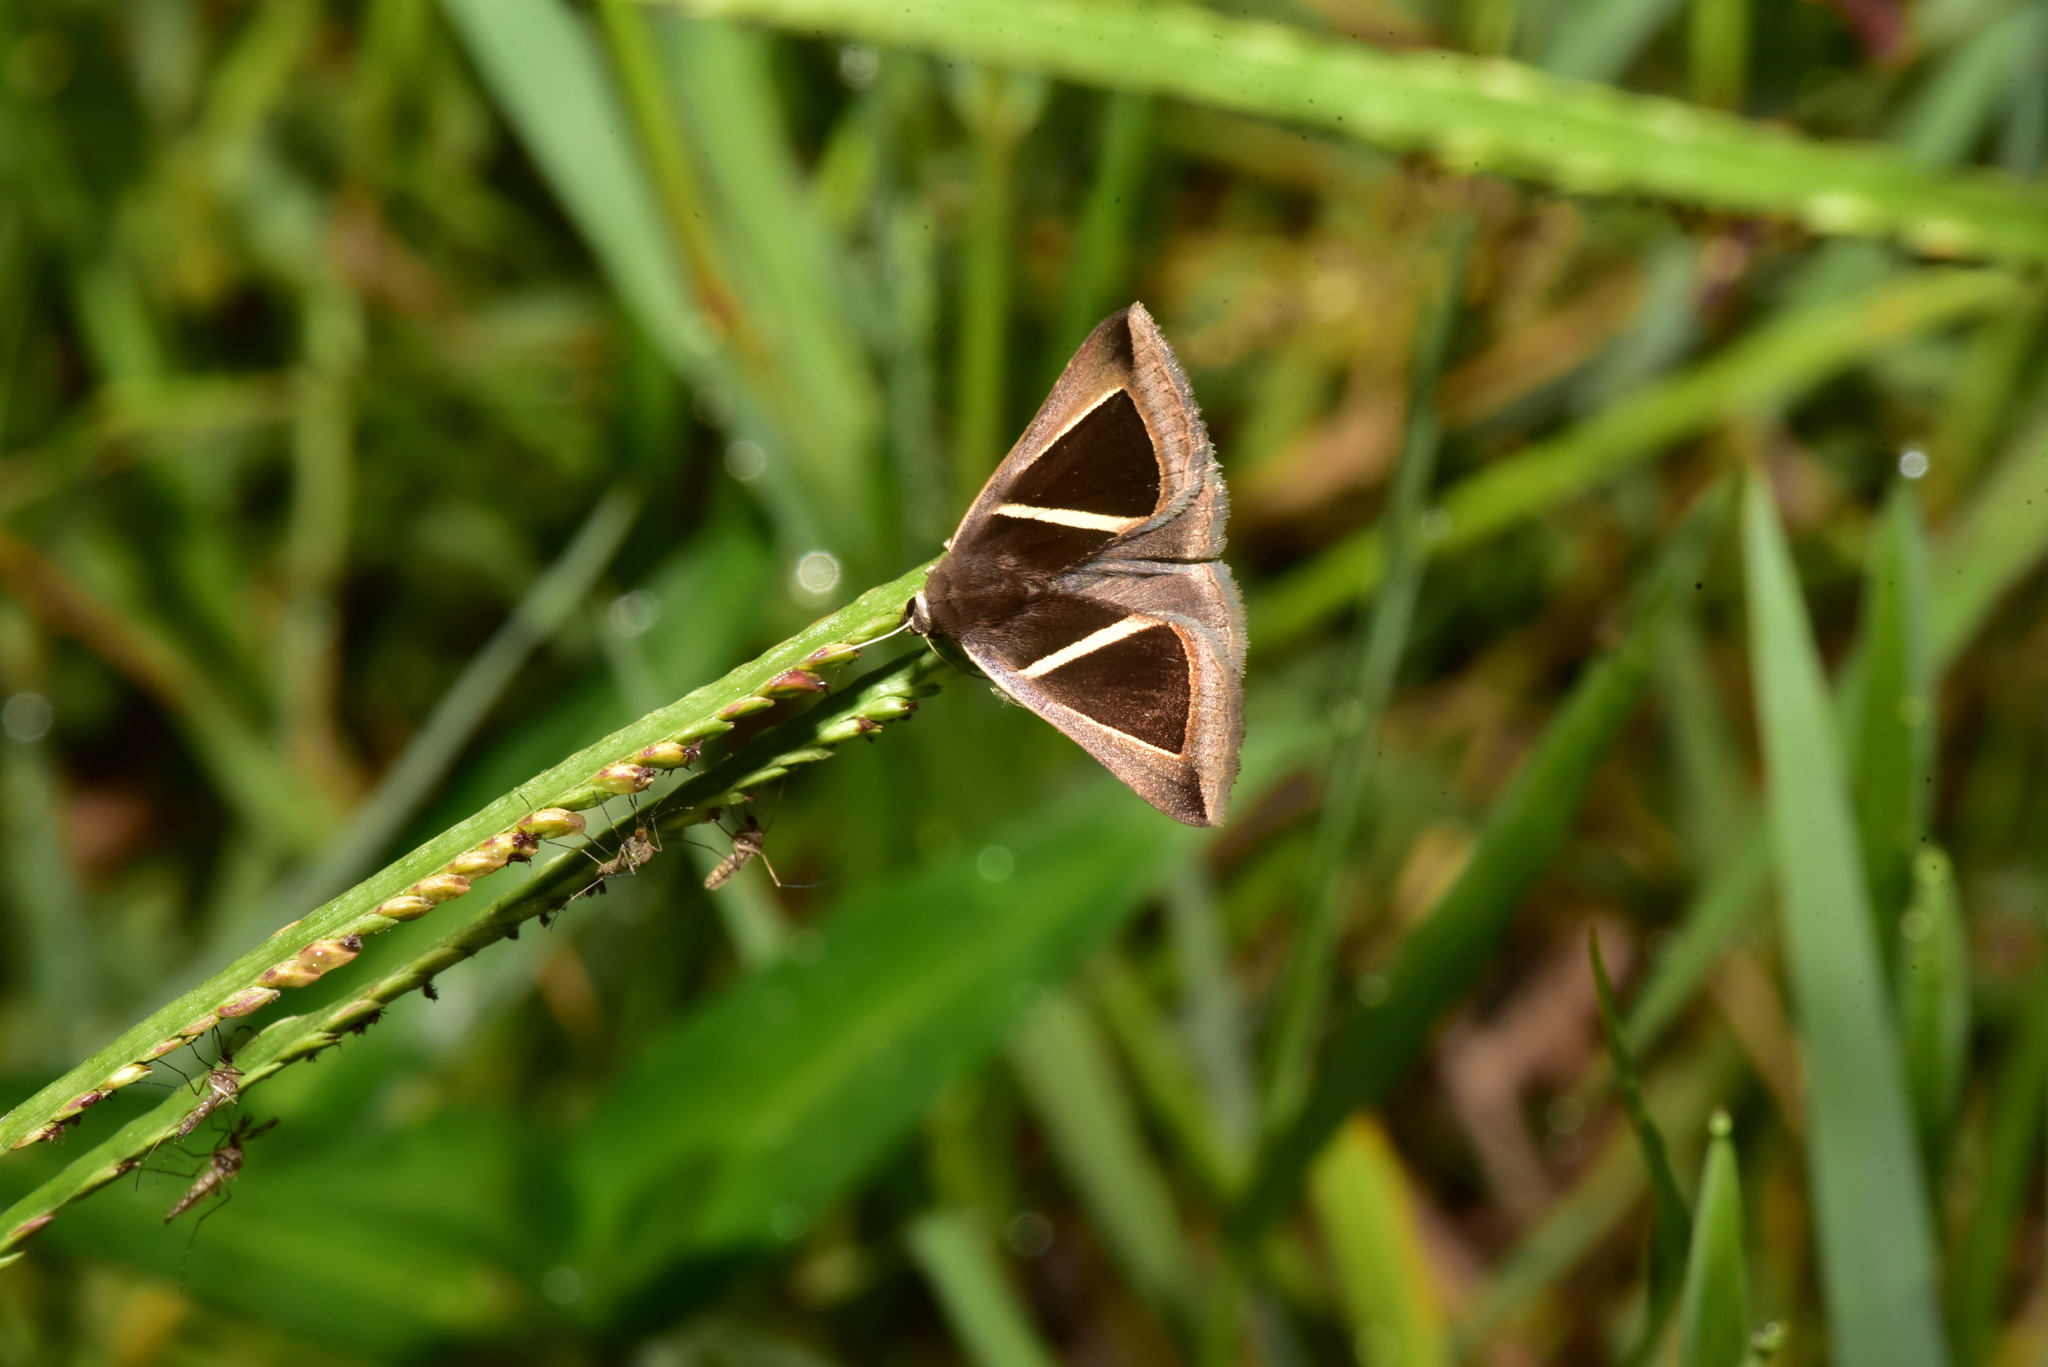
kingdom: Animalia
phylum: Arthropoda
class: Insecta
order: Lepidoptera
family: Erebidae
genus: Chalciope
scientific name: Chalciope mygdon
